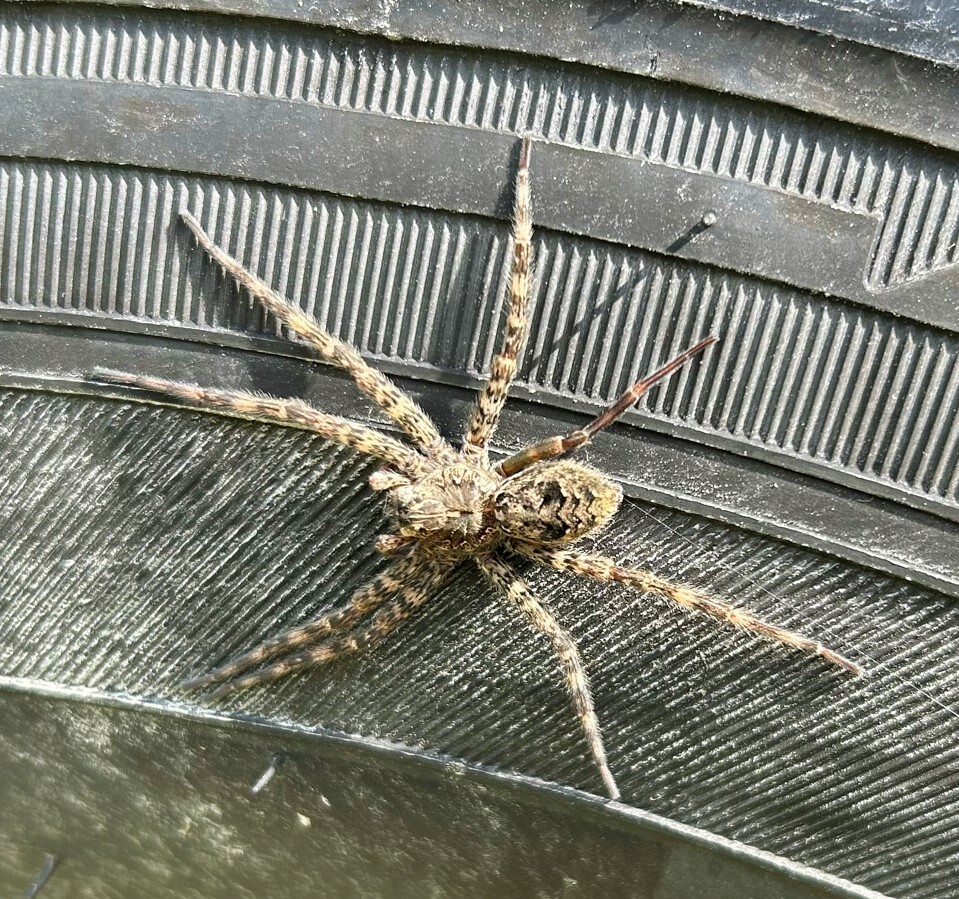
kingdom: Animalia
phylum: Arthropoda
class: Arachnida
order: Araneae
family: Pisauridae
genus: Dolomedes
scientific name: Dolomedes tenebrosus
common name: Dark fishing spider
